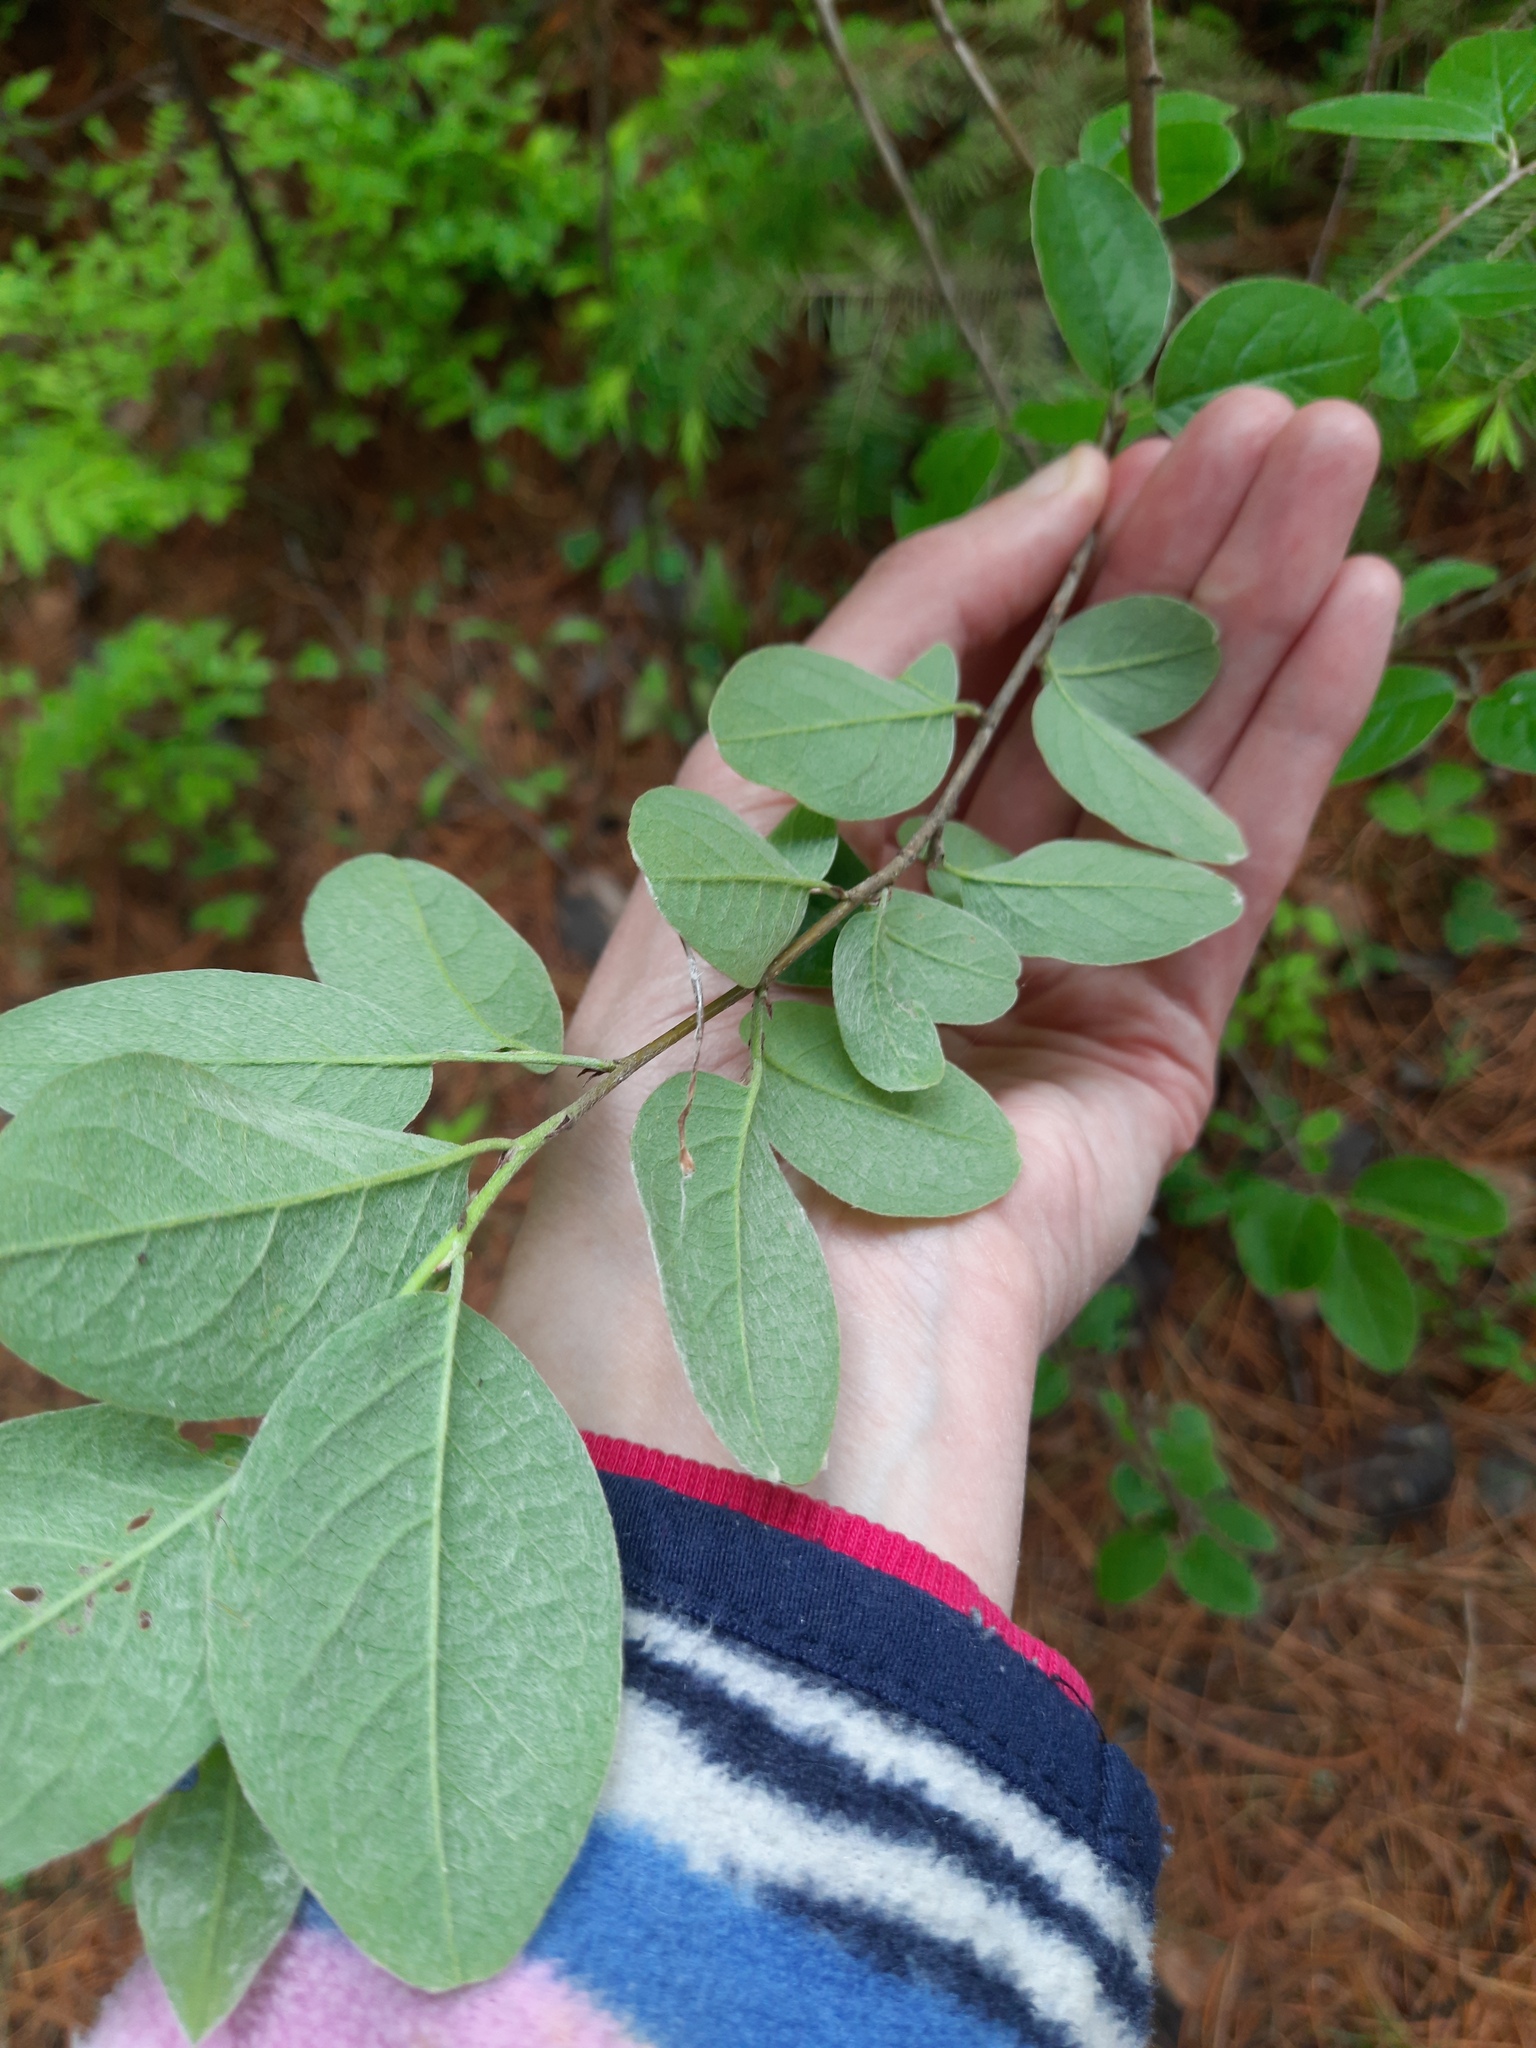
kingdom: Plantae
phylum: Tracheophyta
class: Magnoliopsida
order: Rosales
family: Rosaceae
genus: Cotoneaster
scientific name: Cotoneaster melanocarpus
